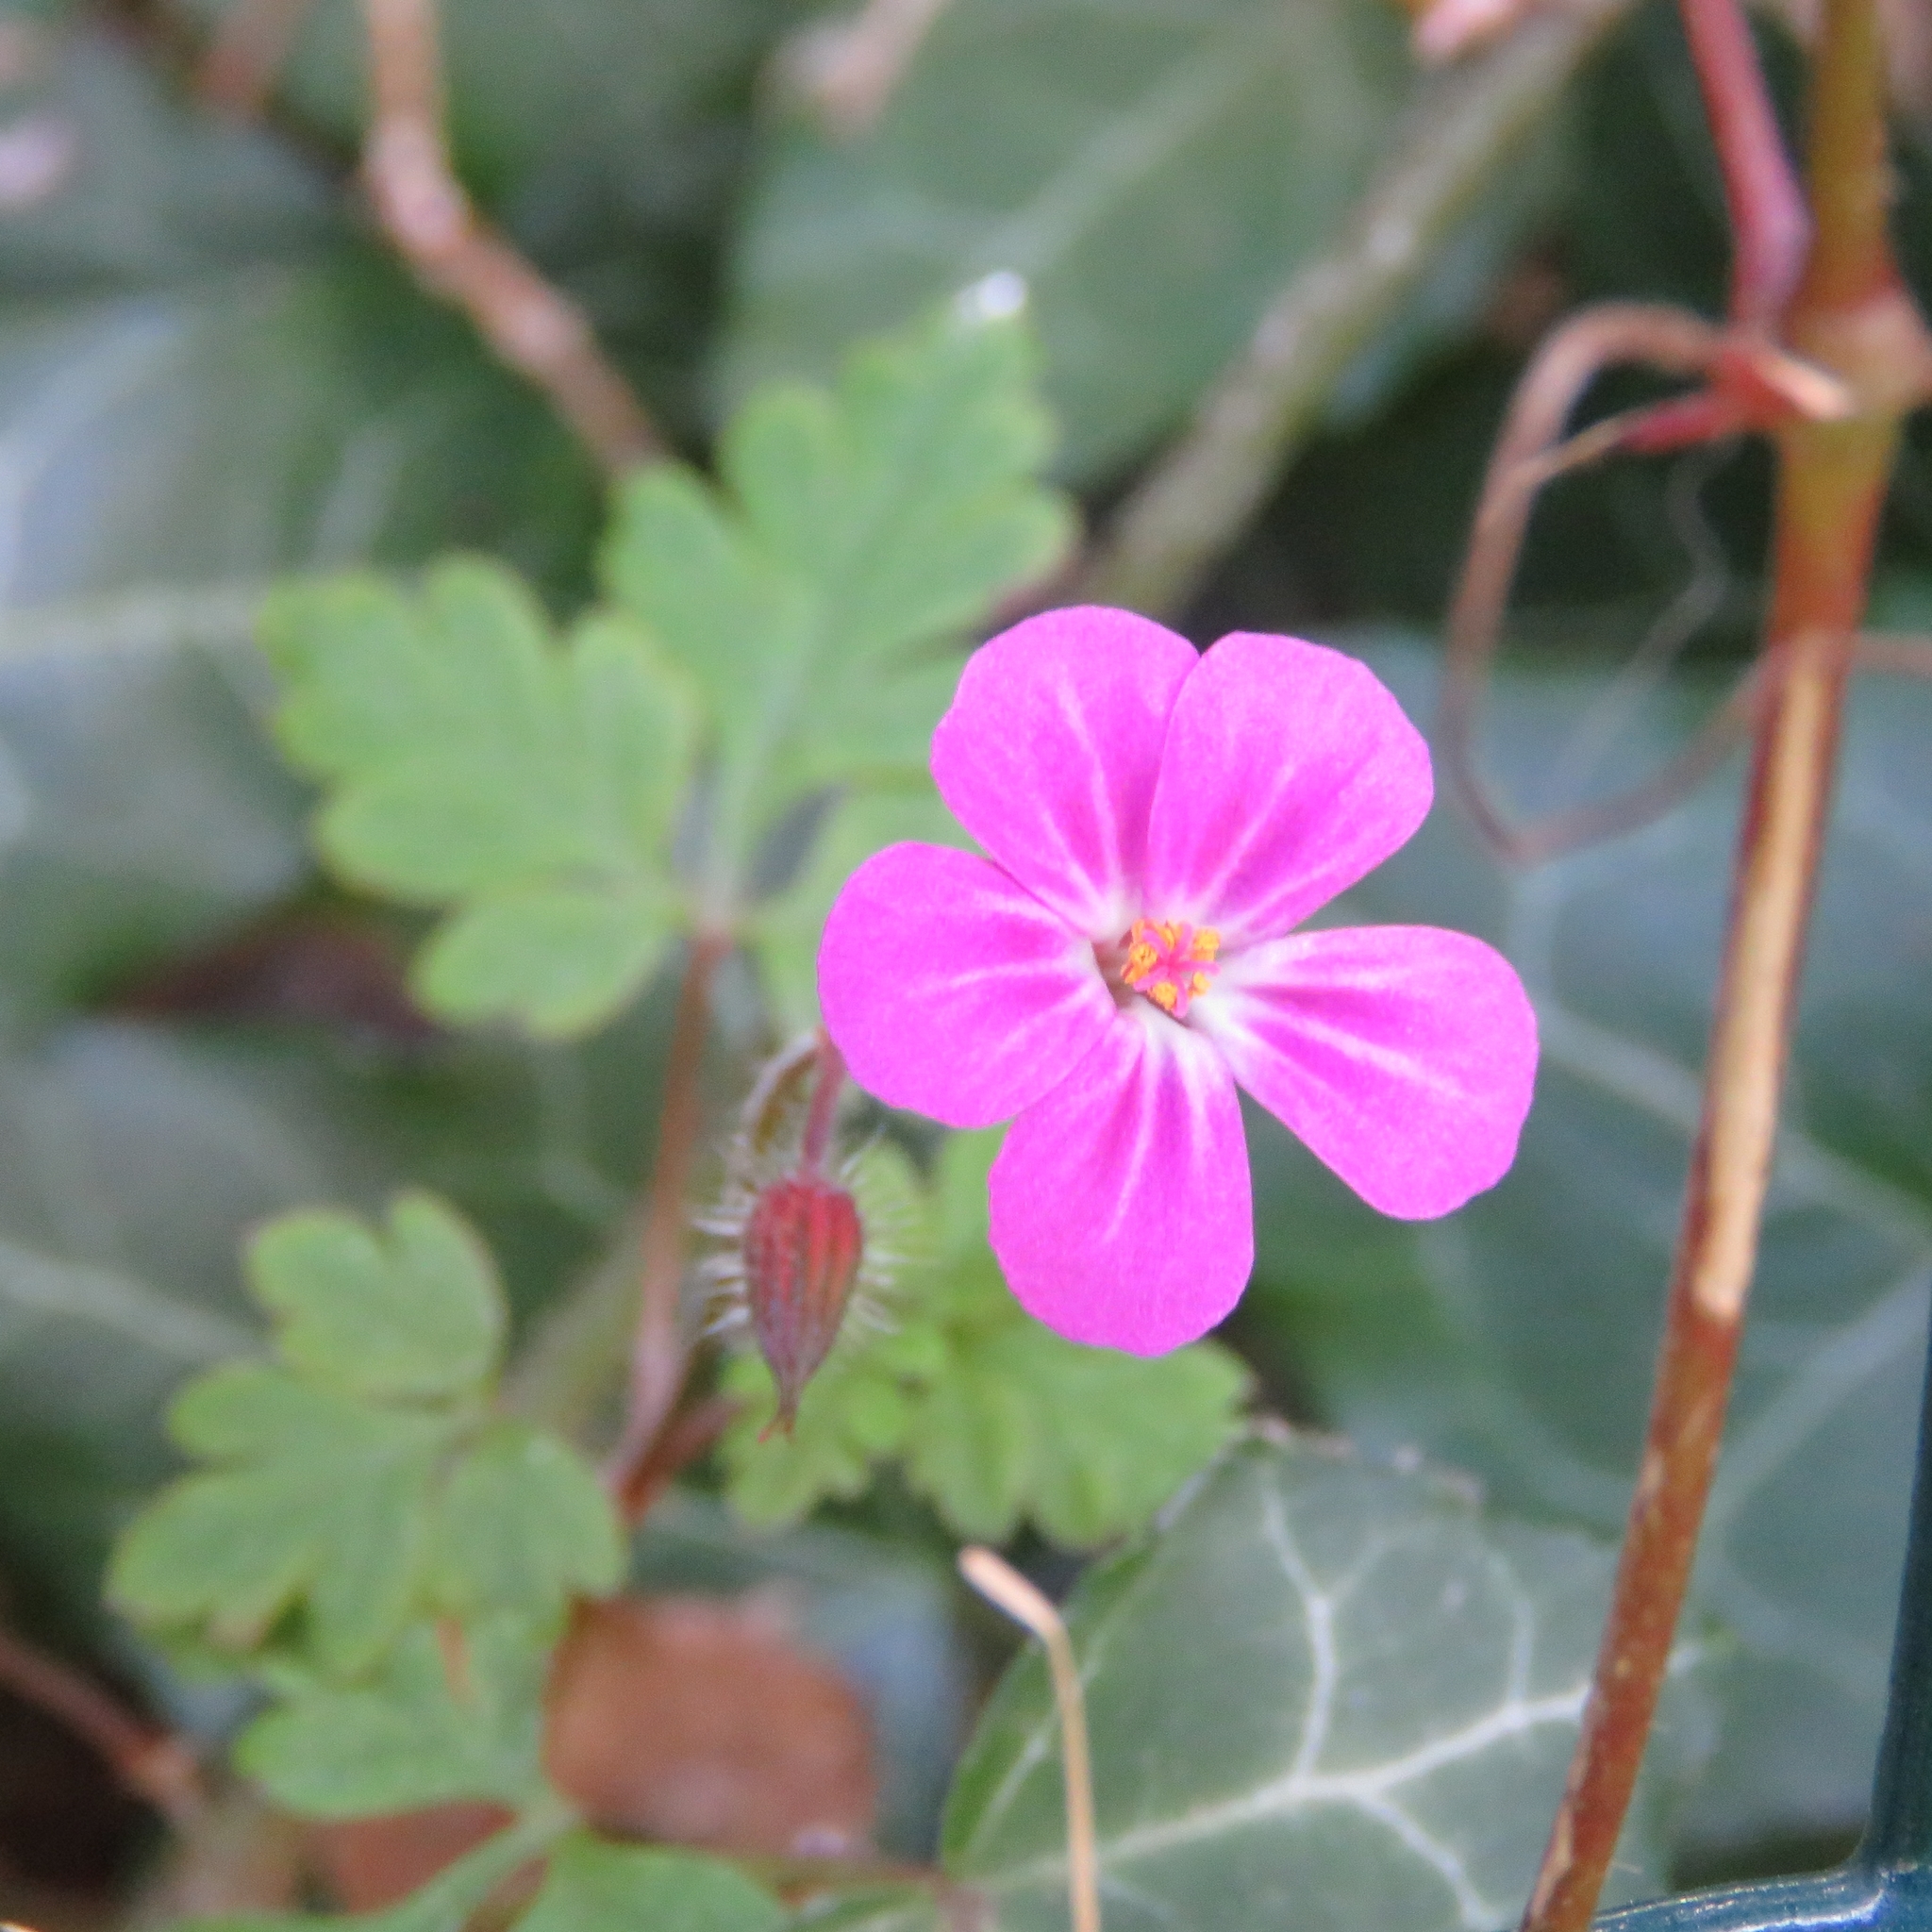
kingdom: Plantae
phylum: Tracheophyta
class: Magnoliopsida
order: Geraniales
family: Geraniaceae
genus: Geranium
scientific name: Geranium robertianum
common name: Herb-robert
